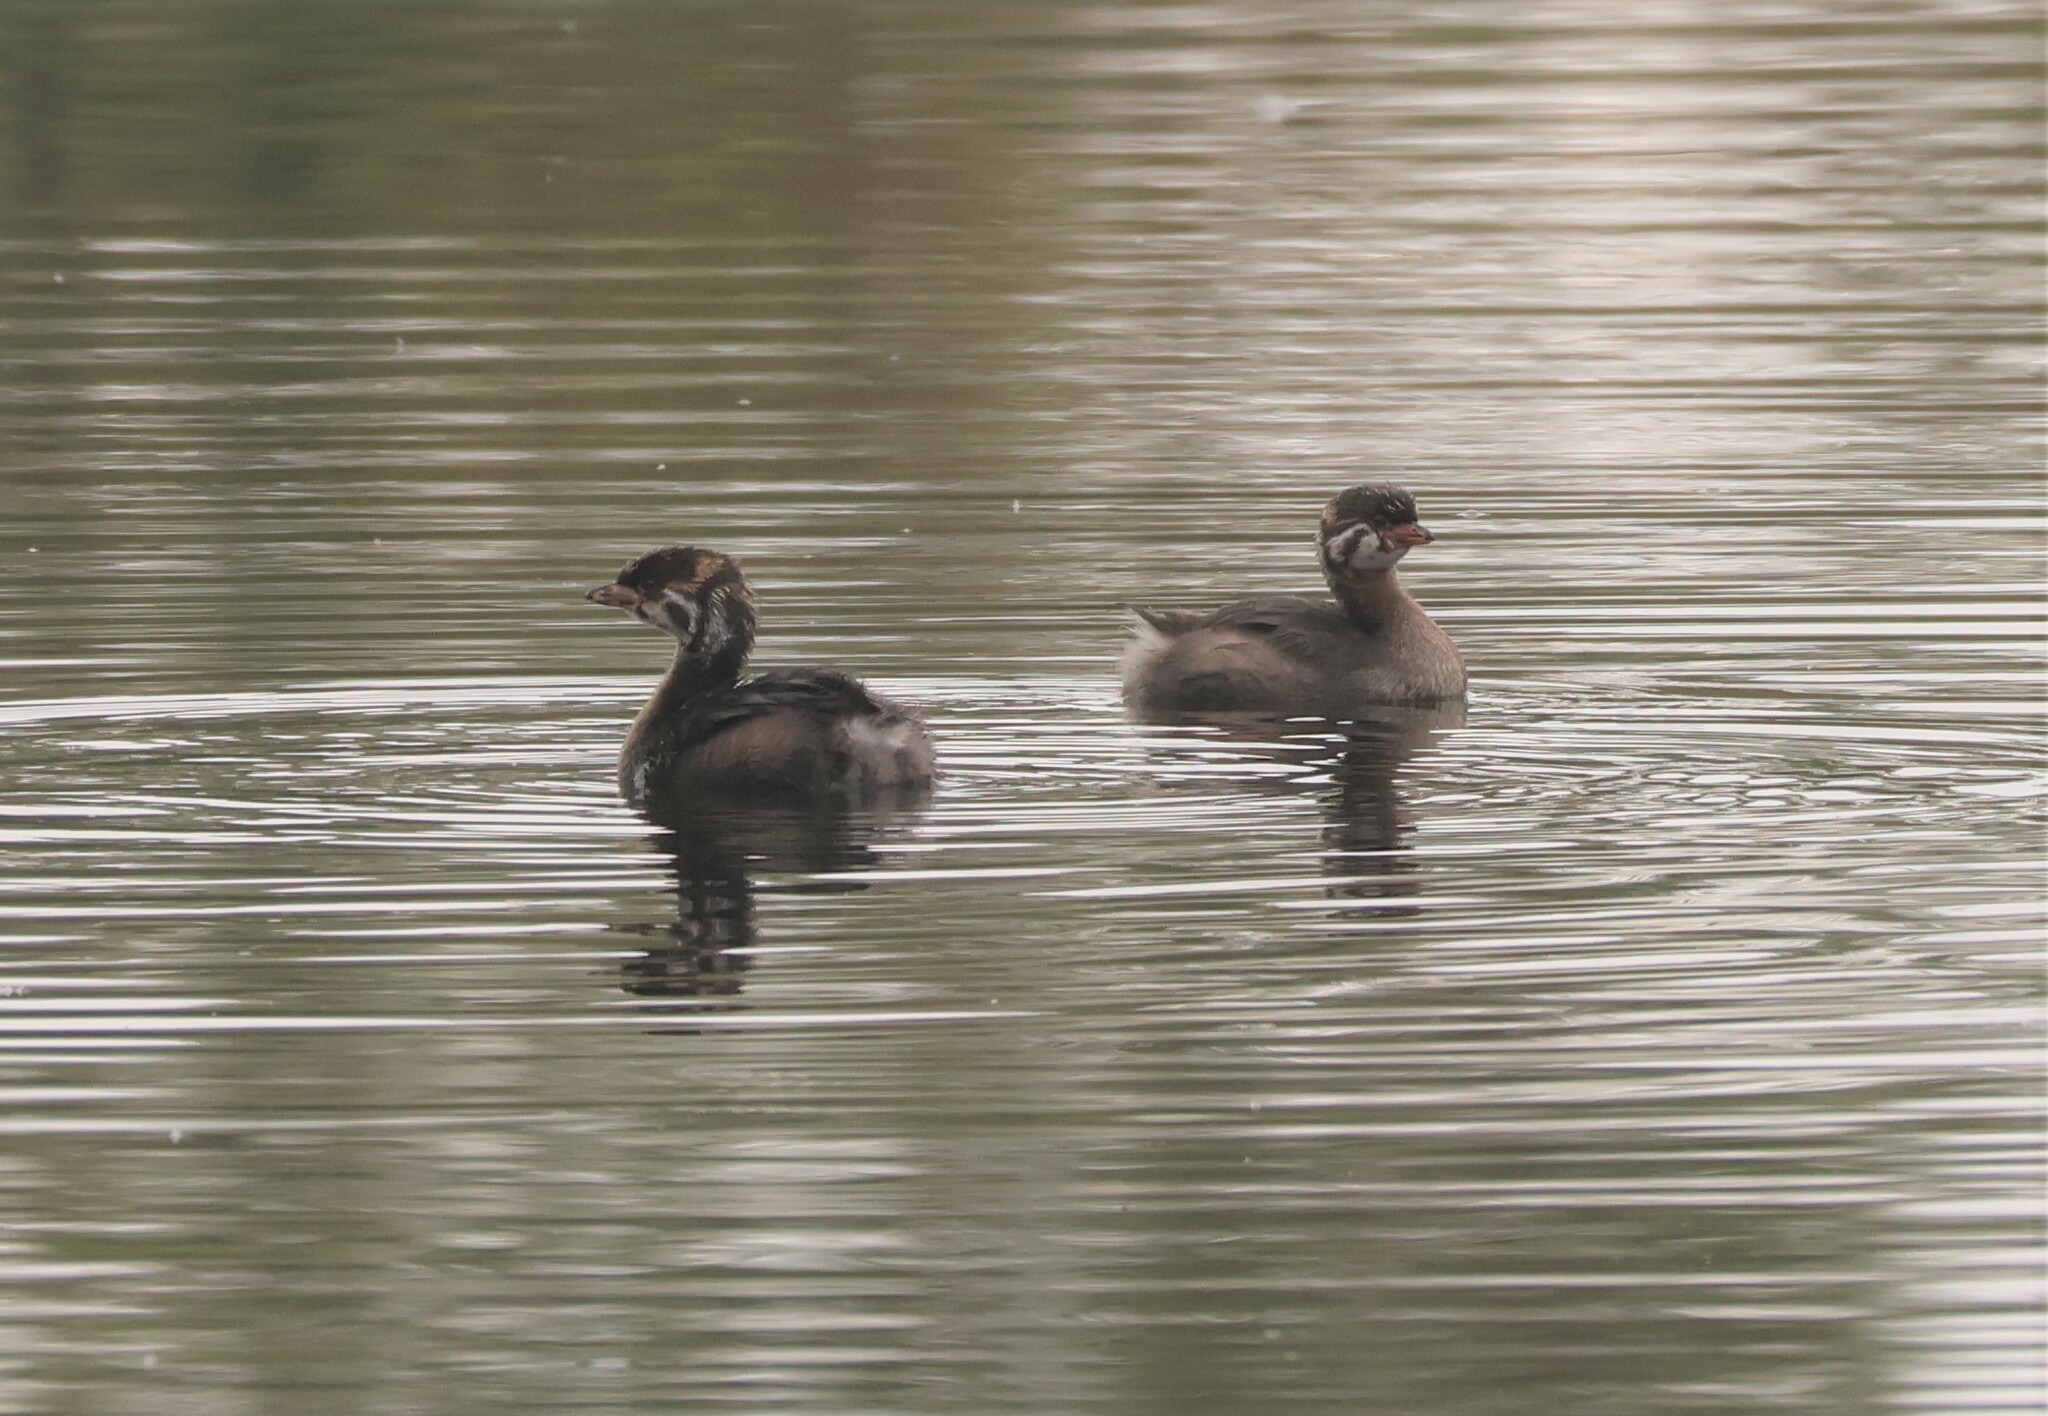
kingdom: Animalia
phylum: Chordata
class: Aves
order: Podicipediformes
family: Podicipedidae
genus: Podilymbus
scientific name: Podilymbus podiceps
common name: Pied-billed grebe
